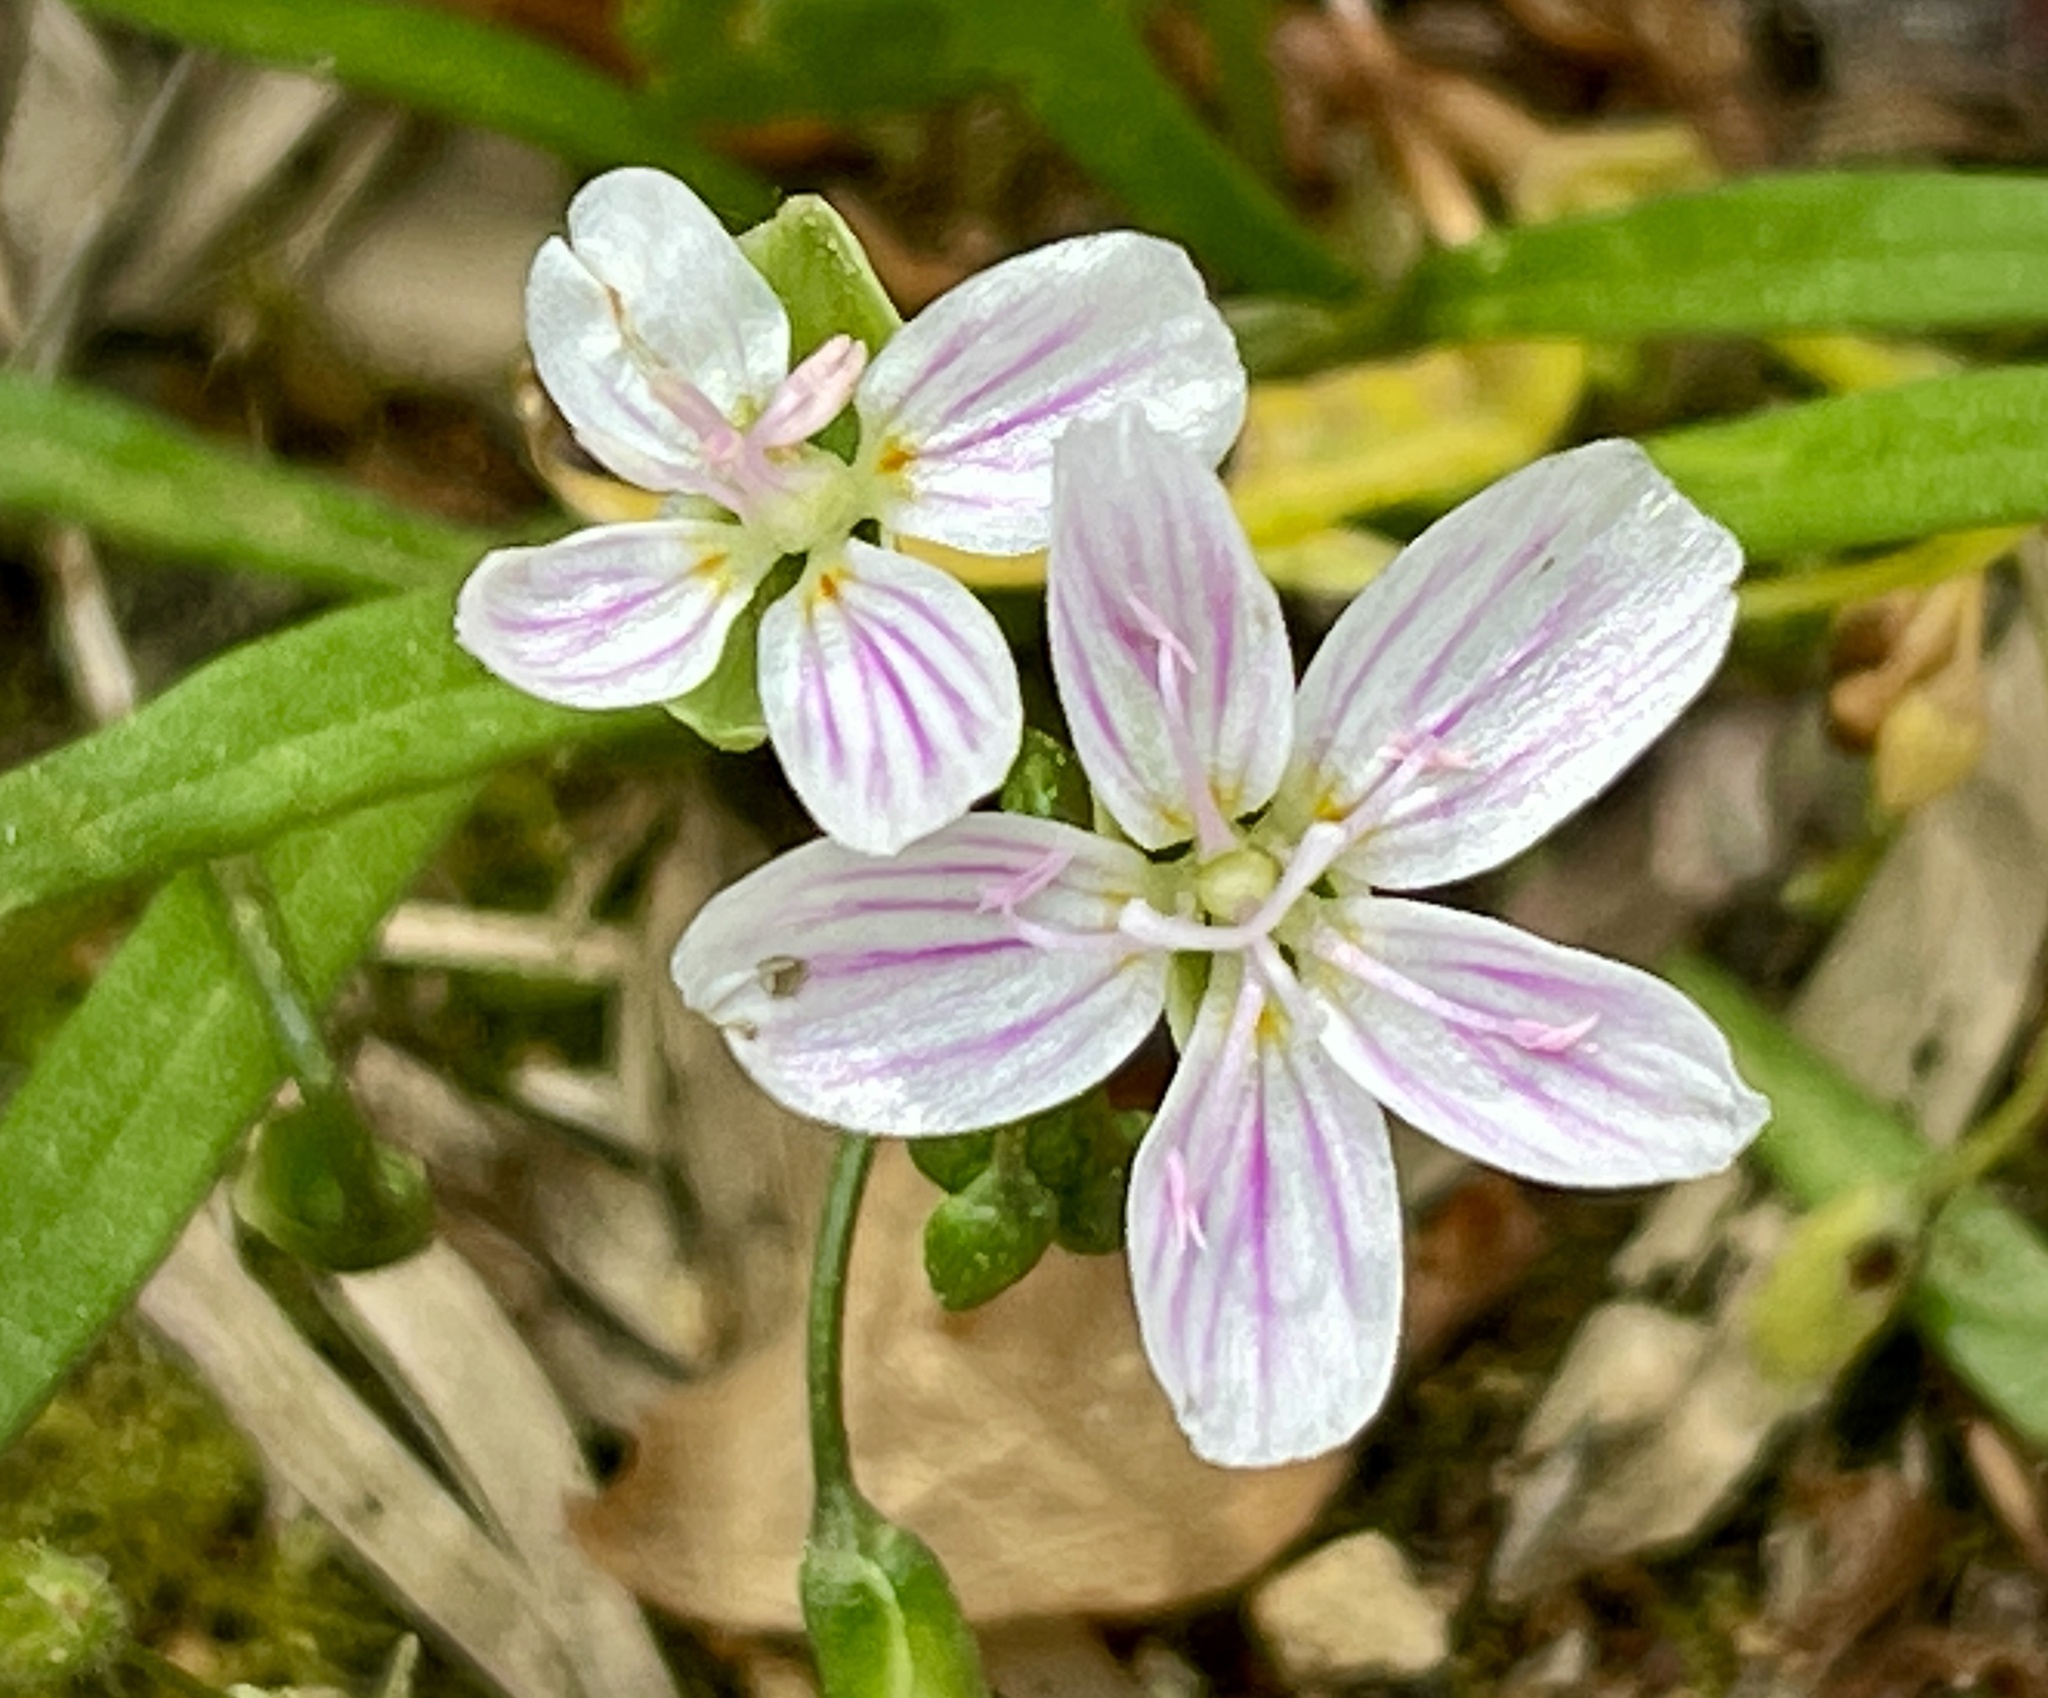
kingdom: Plantae
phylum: Tracheophyta
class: Magnoliopsida
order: Caryophyllales
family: Montiaceae
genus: Claytonia
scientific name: Claytonia virginica
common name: Virginia springbeauty
